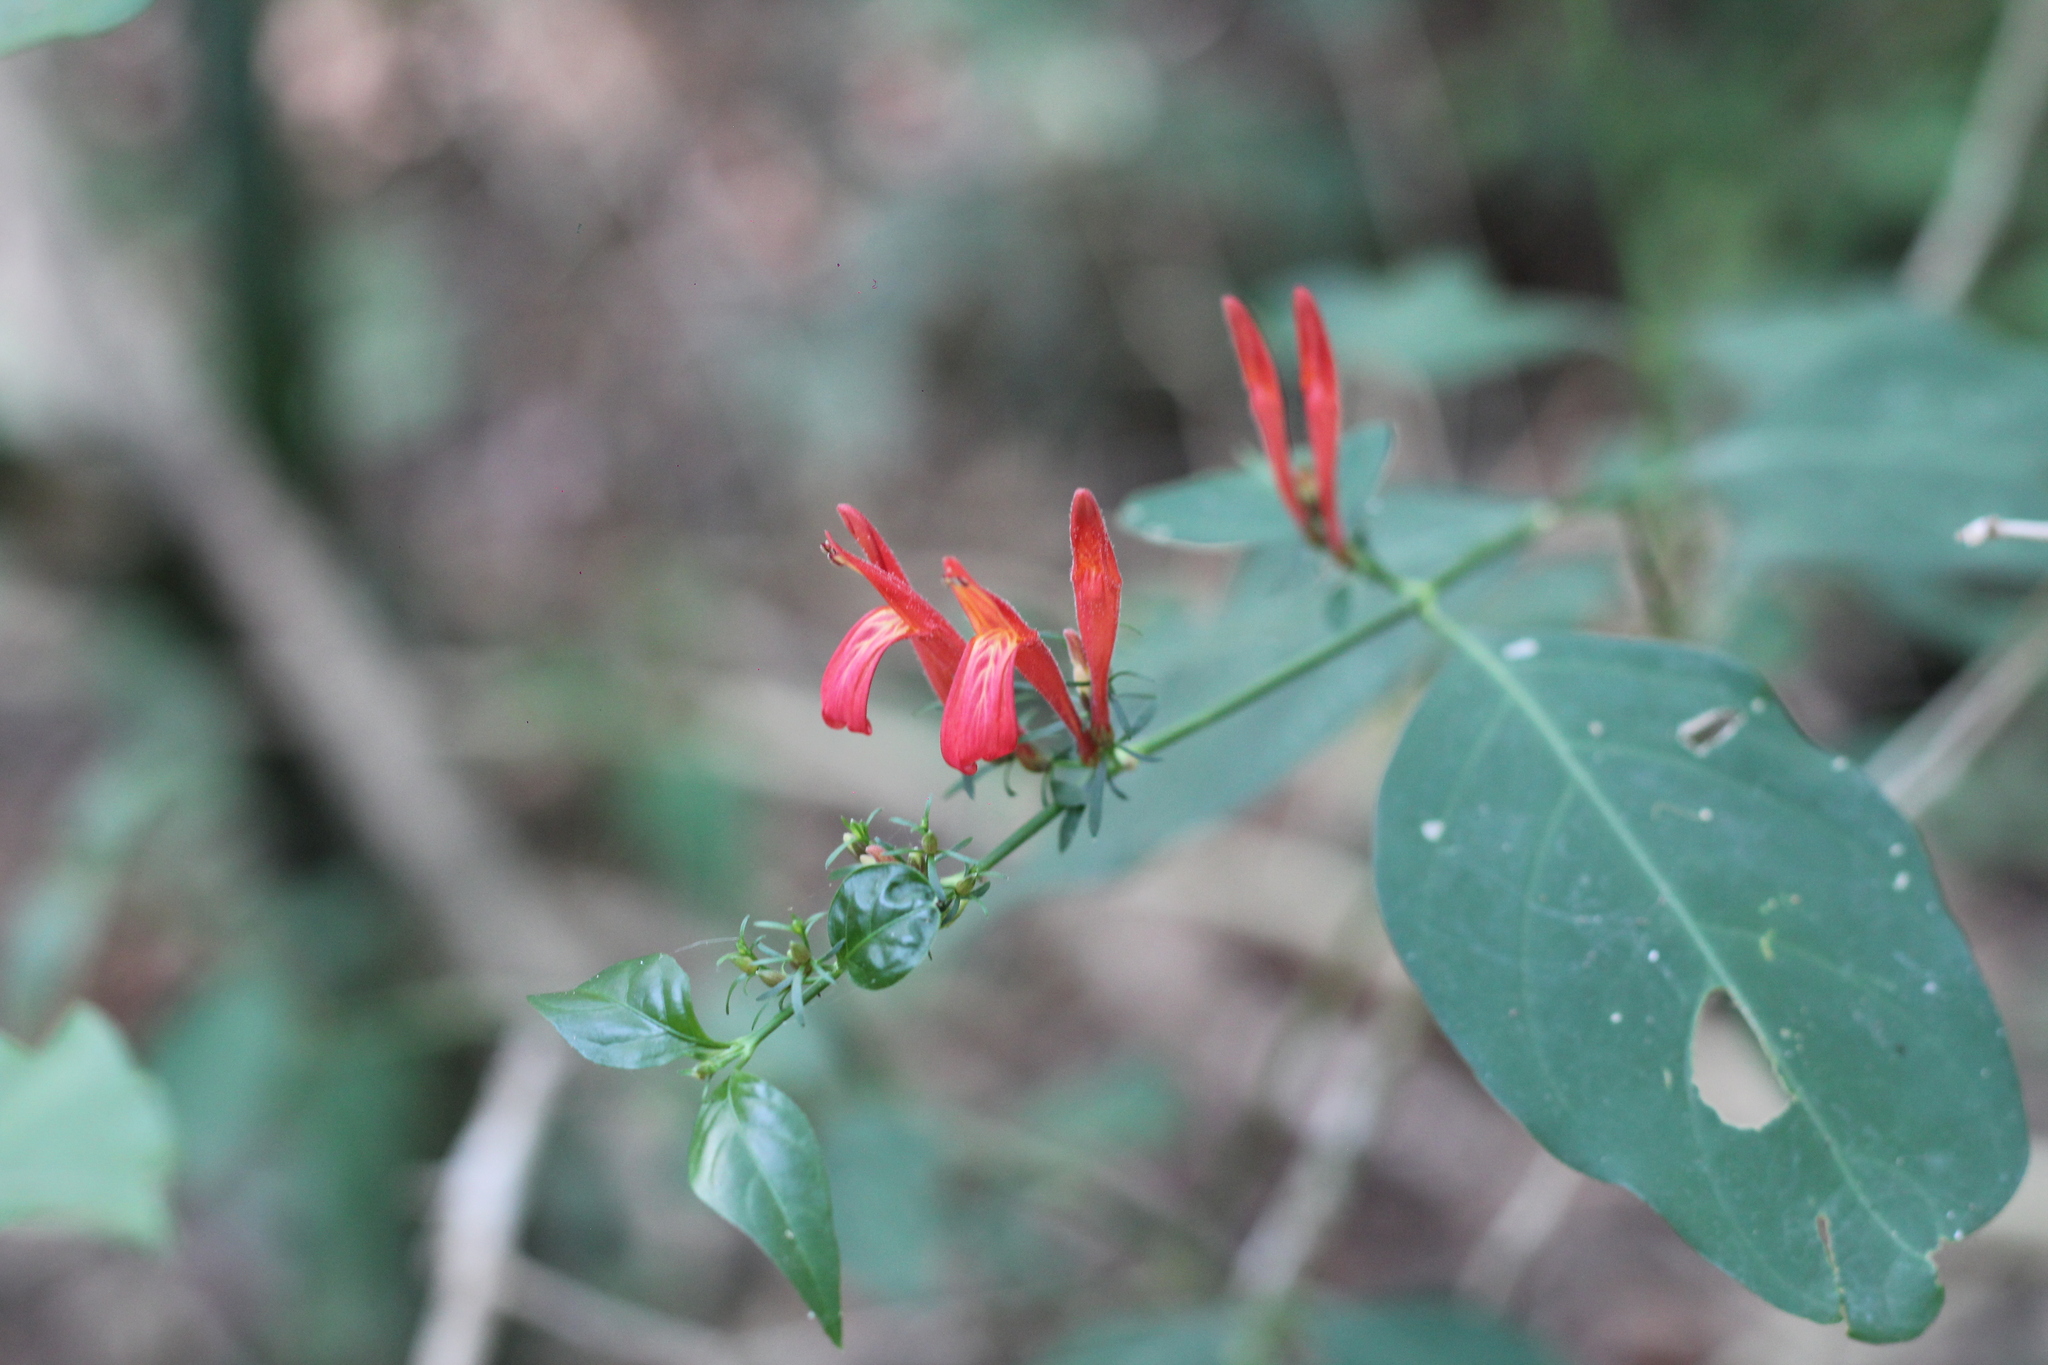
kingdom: Plantae
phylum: Tracheophyta
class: Magnoliopsida
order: Lamiales
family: Acanthaceae
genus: Justicia
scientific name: Justicia brasiliana
